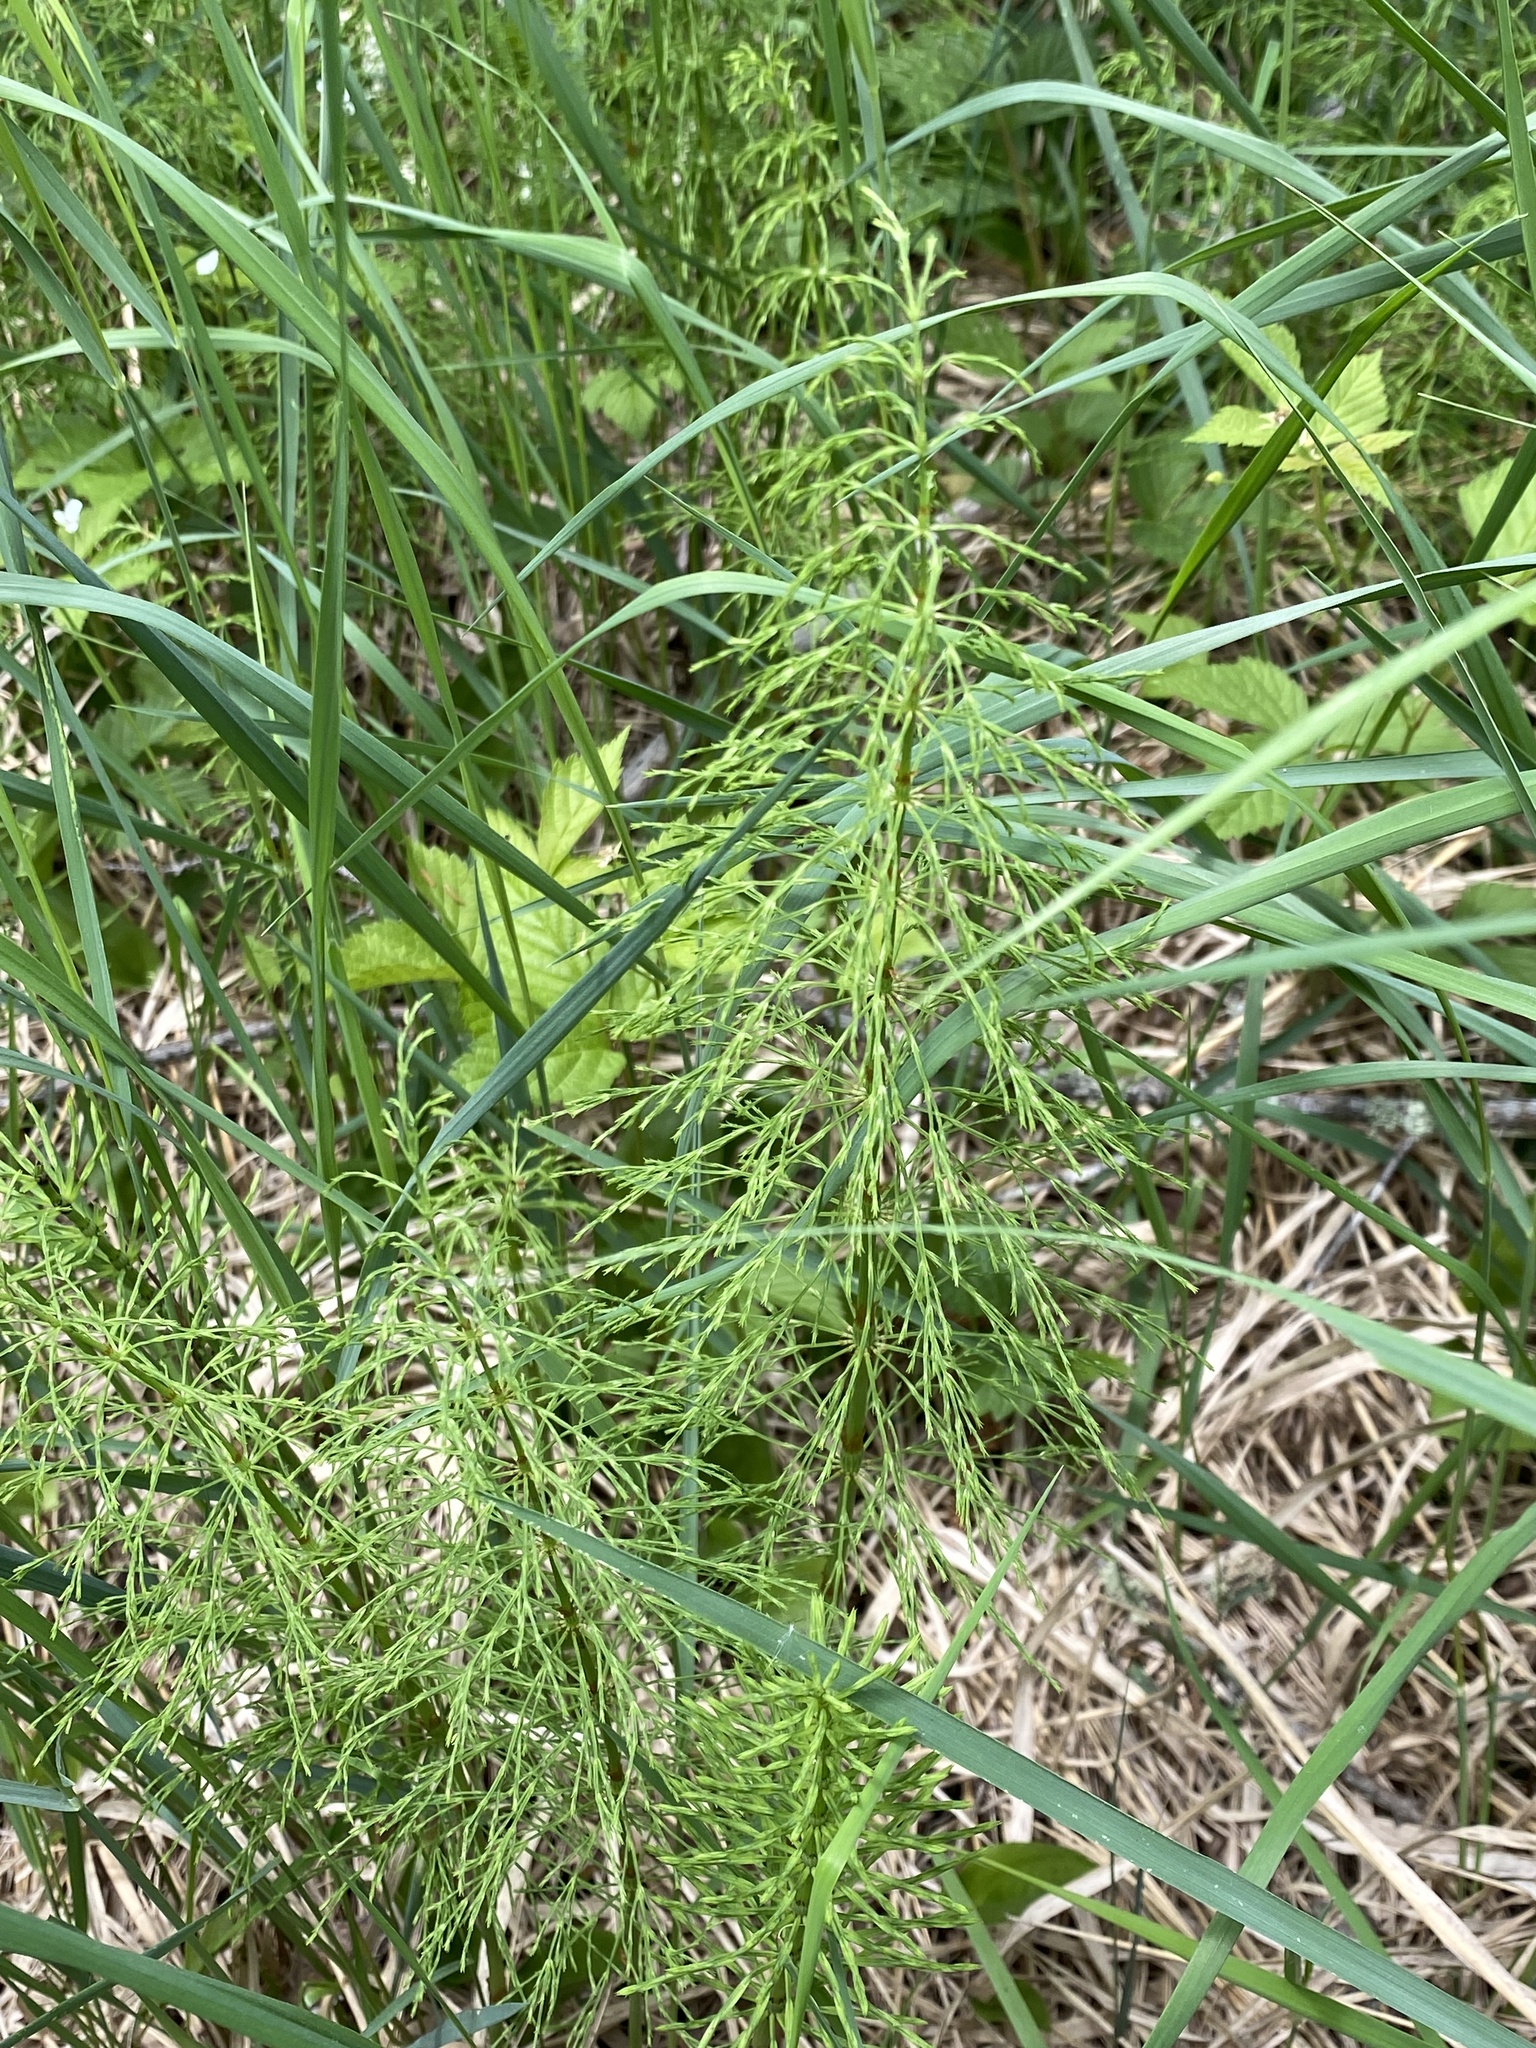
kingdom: Plantae
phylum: Tracheophyta
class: Polypodiopsida
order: Equisetales
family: Equisetaceae
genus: Equisetum
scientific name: Equisetum sylvaticum
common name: Wood horsetail
